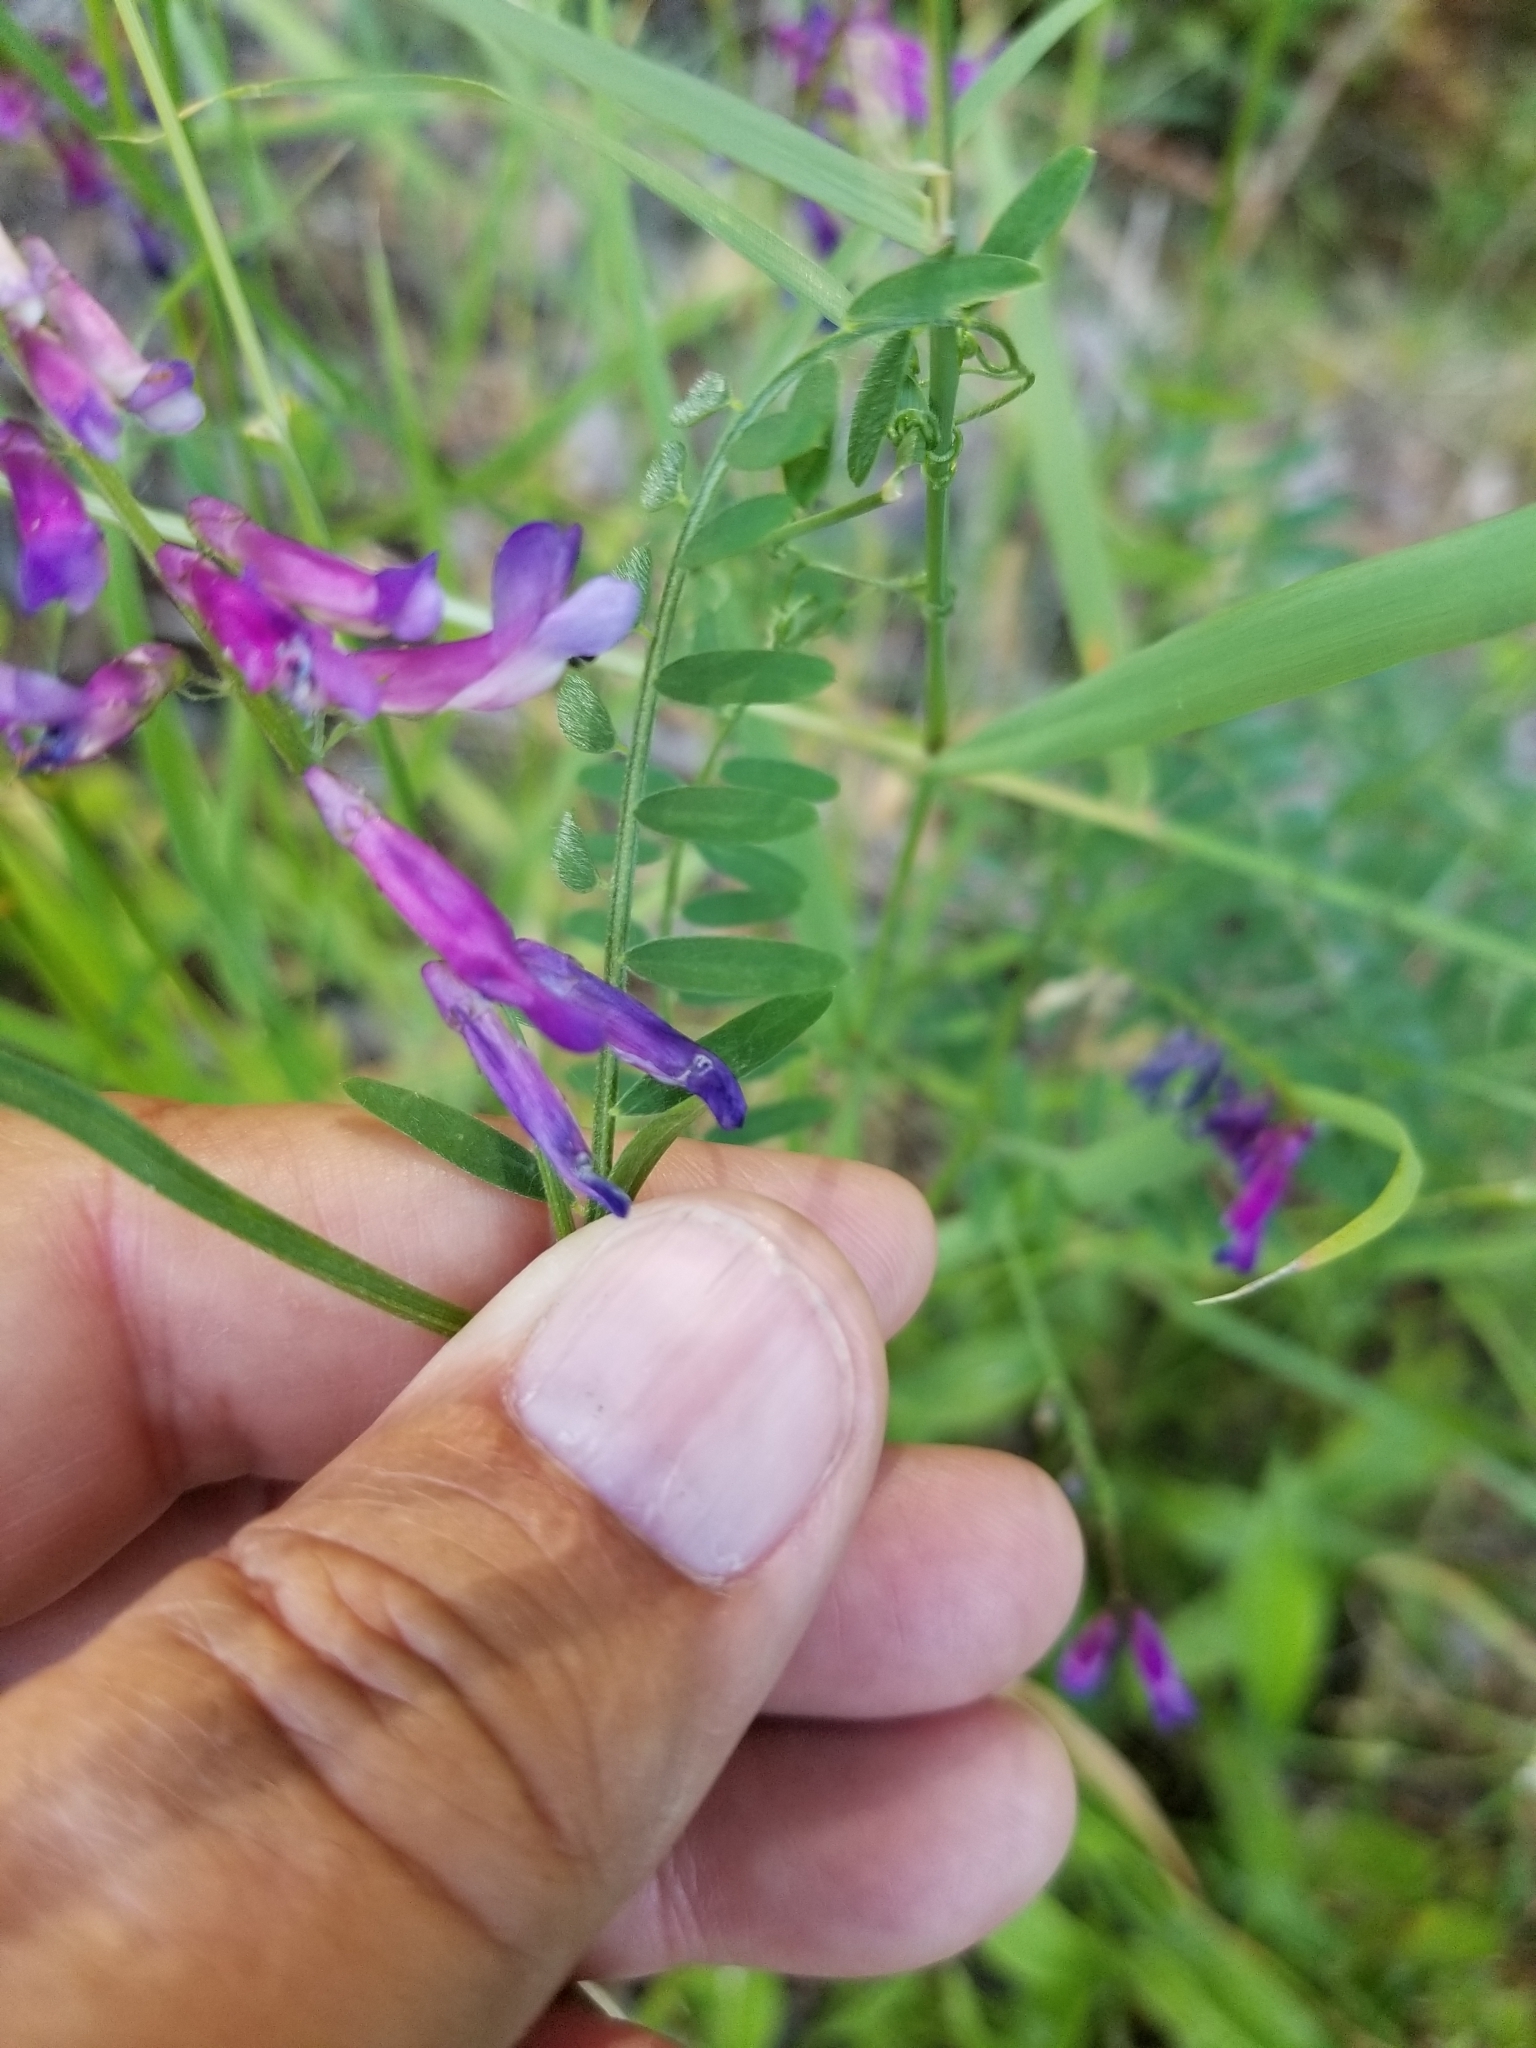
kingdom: Plantae
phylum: Tracheophyta
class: Magnoliopsida
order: Fabales
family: Fabaceae
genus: Vicia
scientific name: Vicia villosa
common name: Fodder vetch
